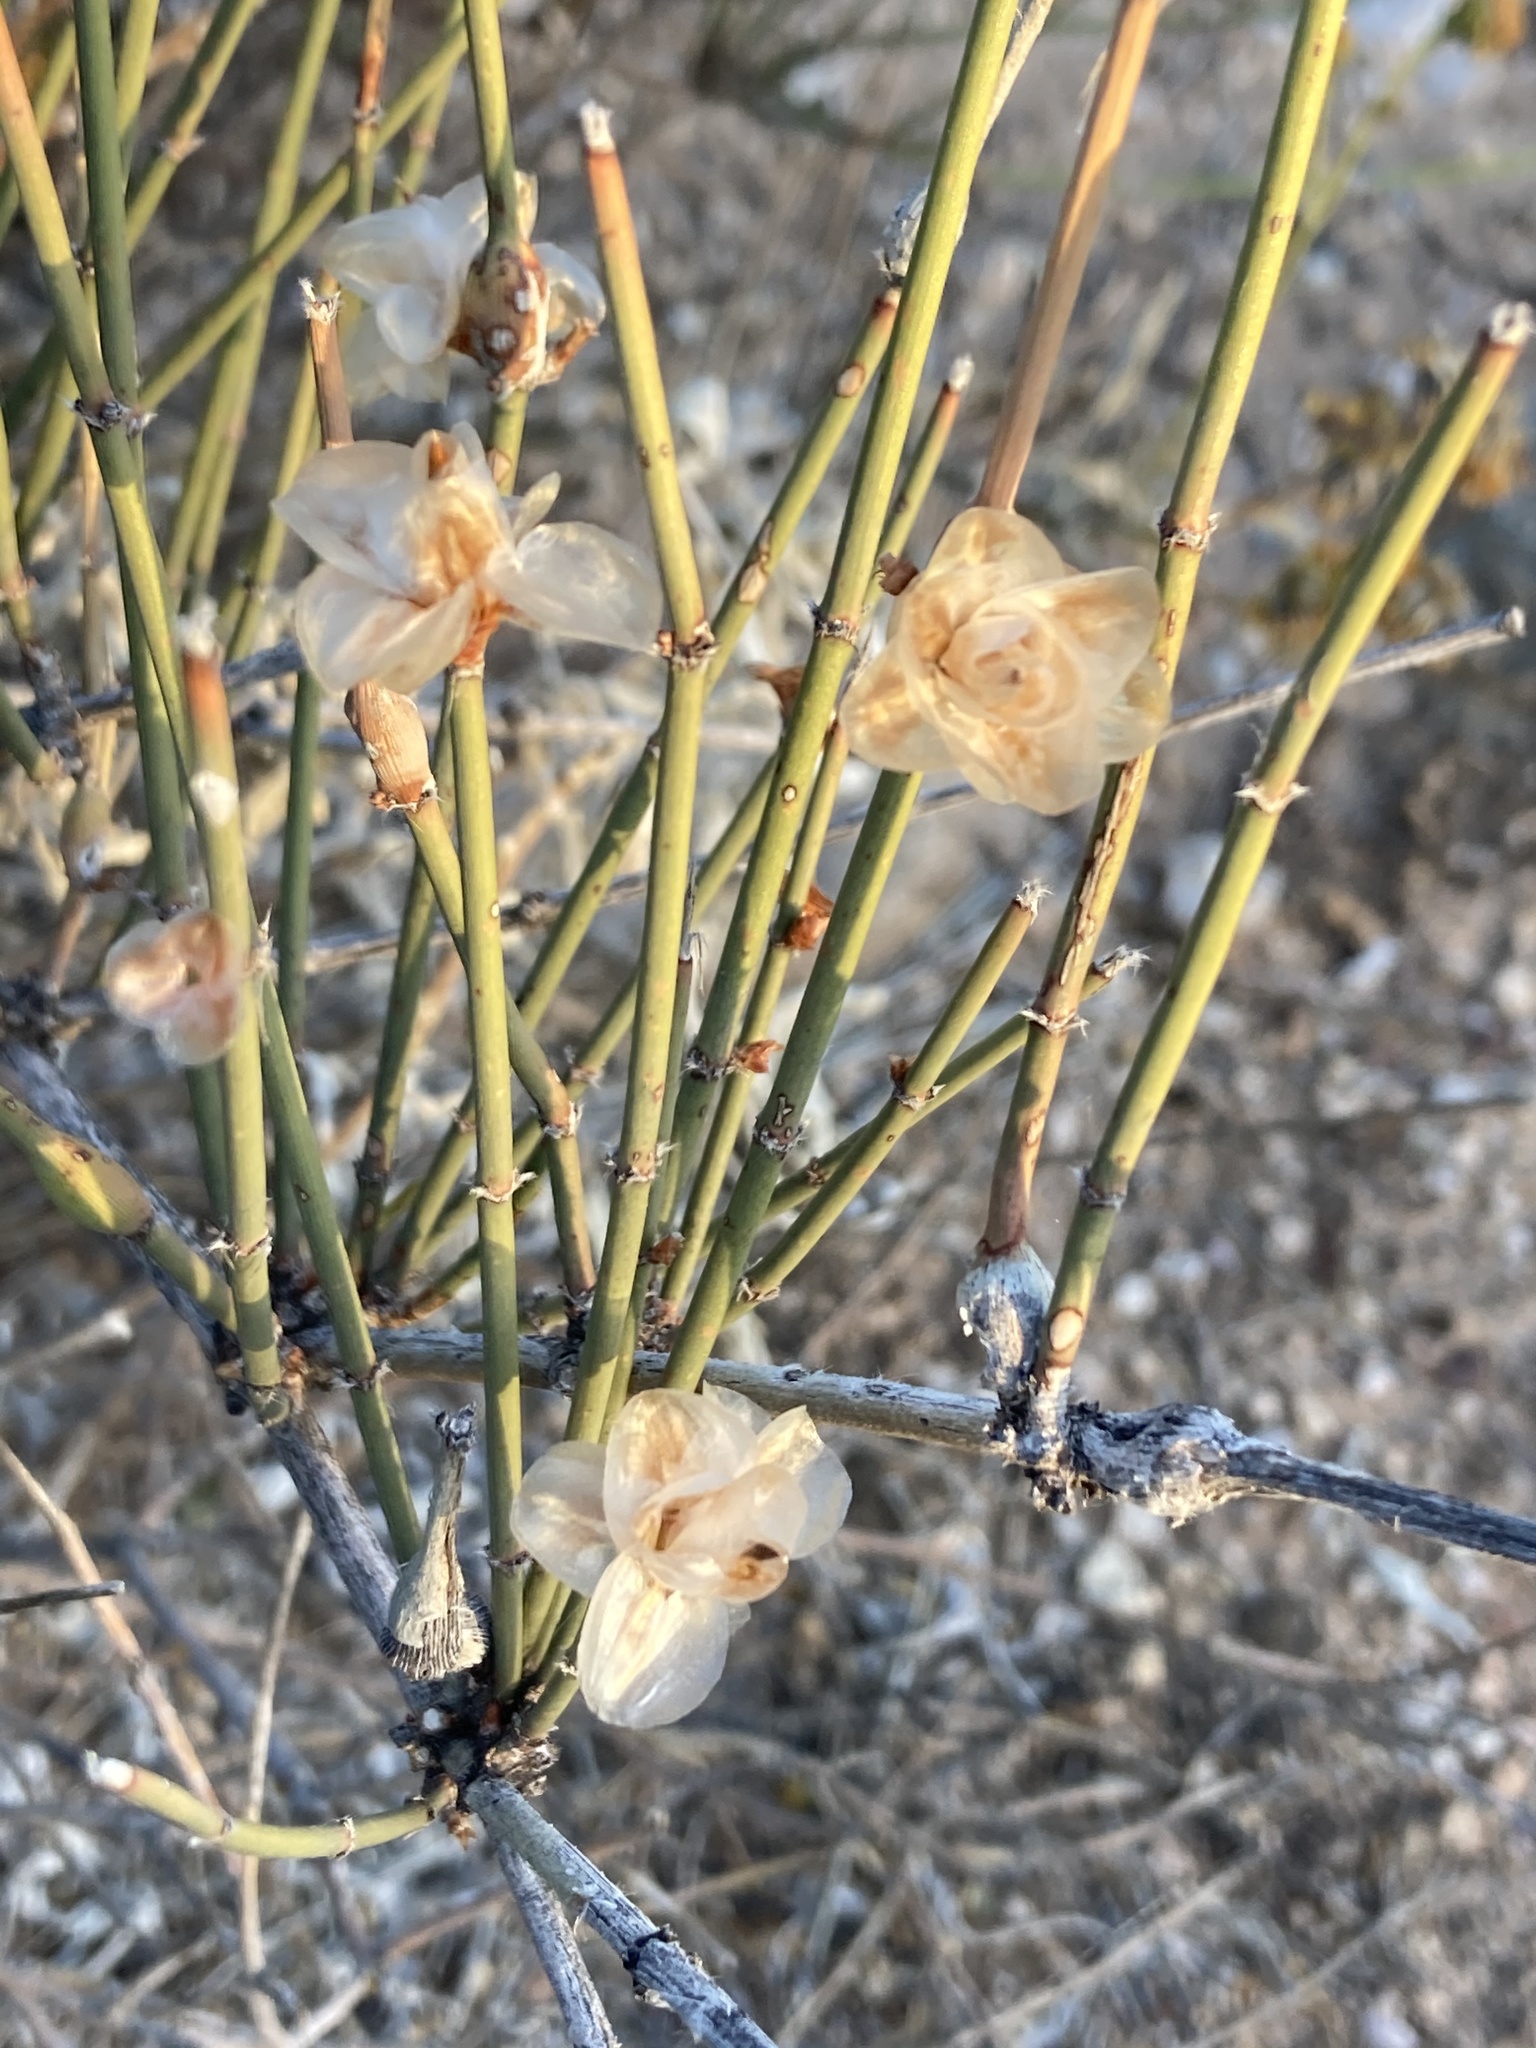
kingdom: Plantae
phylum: Tracheophyta
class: Gnetopsida
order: Ephedrales
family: Ephedraceae
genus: Ephedra
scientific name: Ephedra trifurca
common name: Mexican-tea
